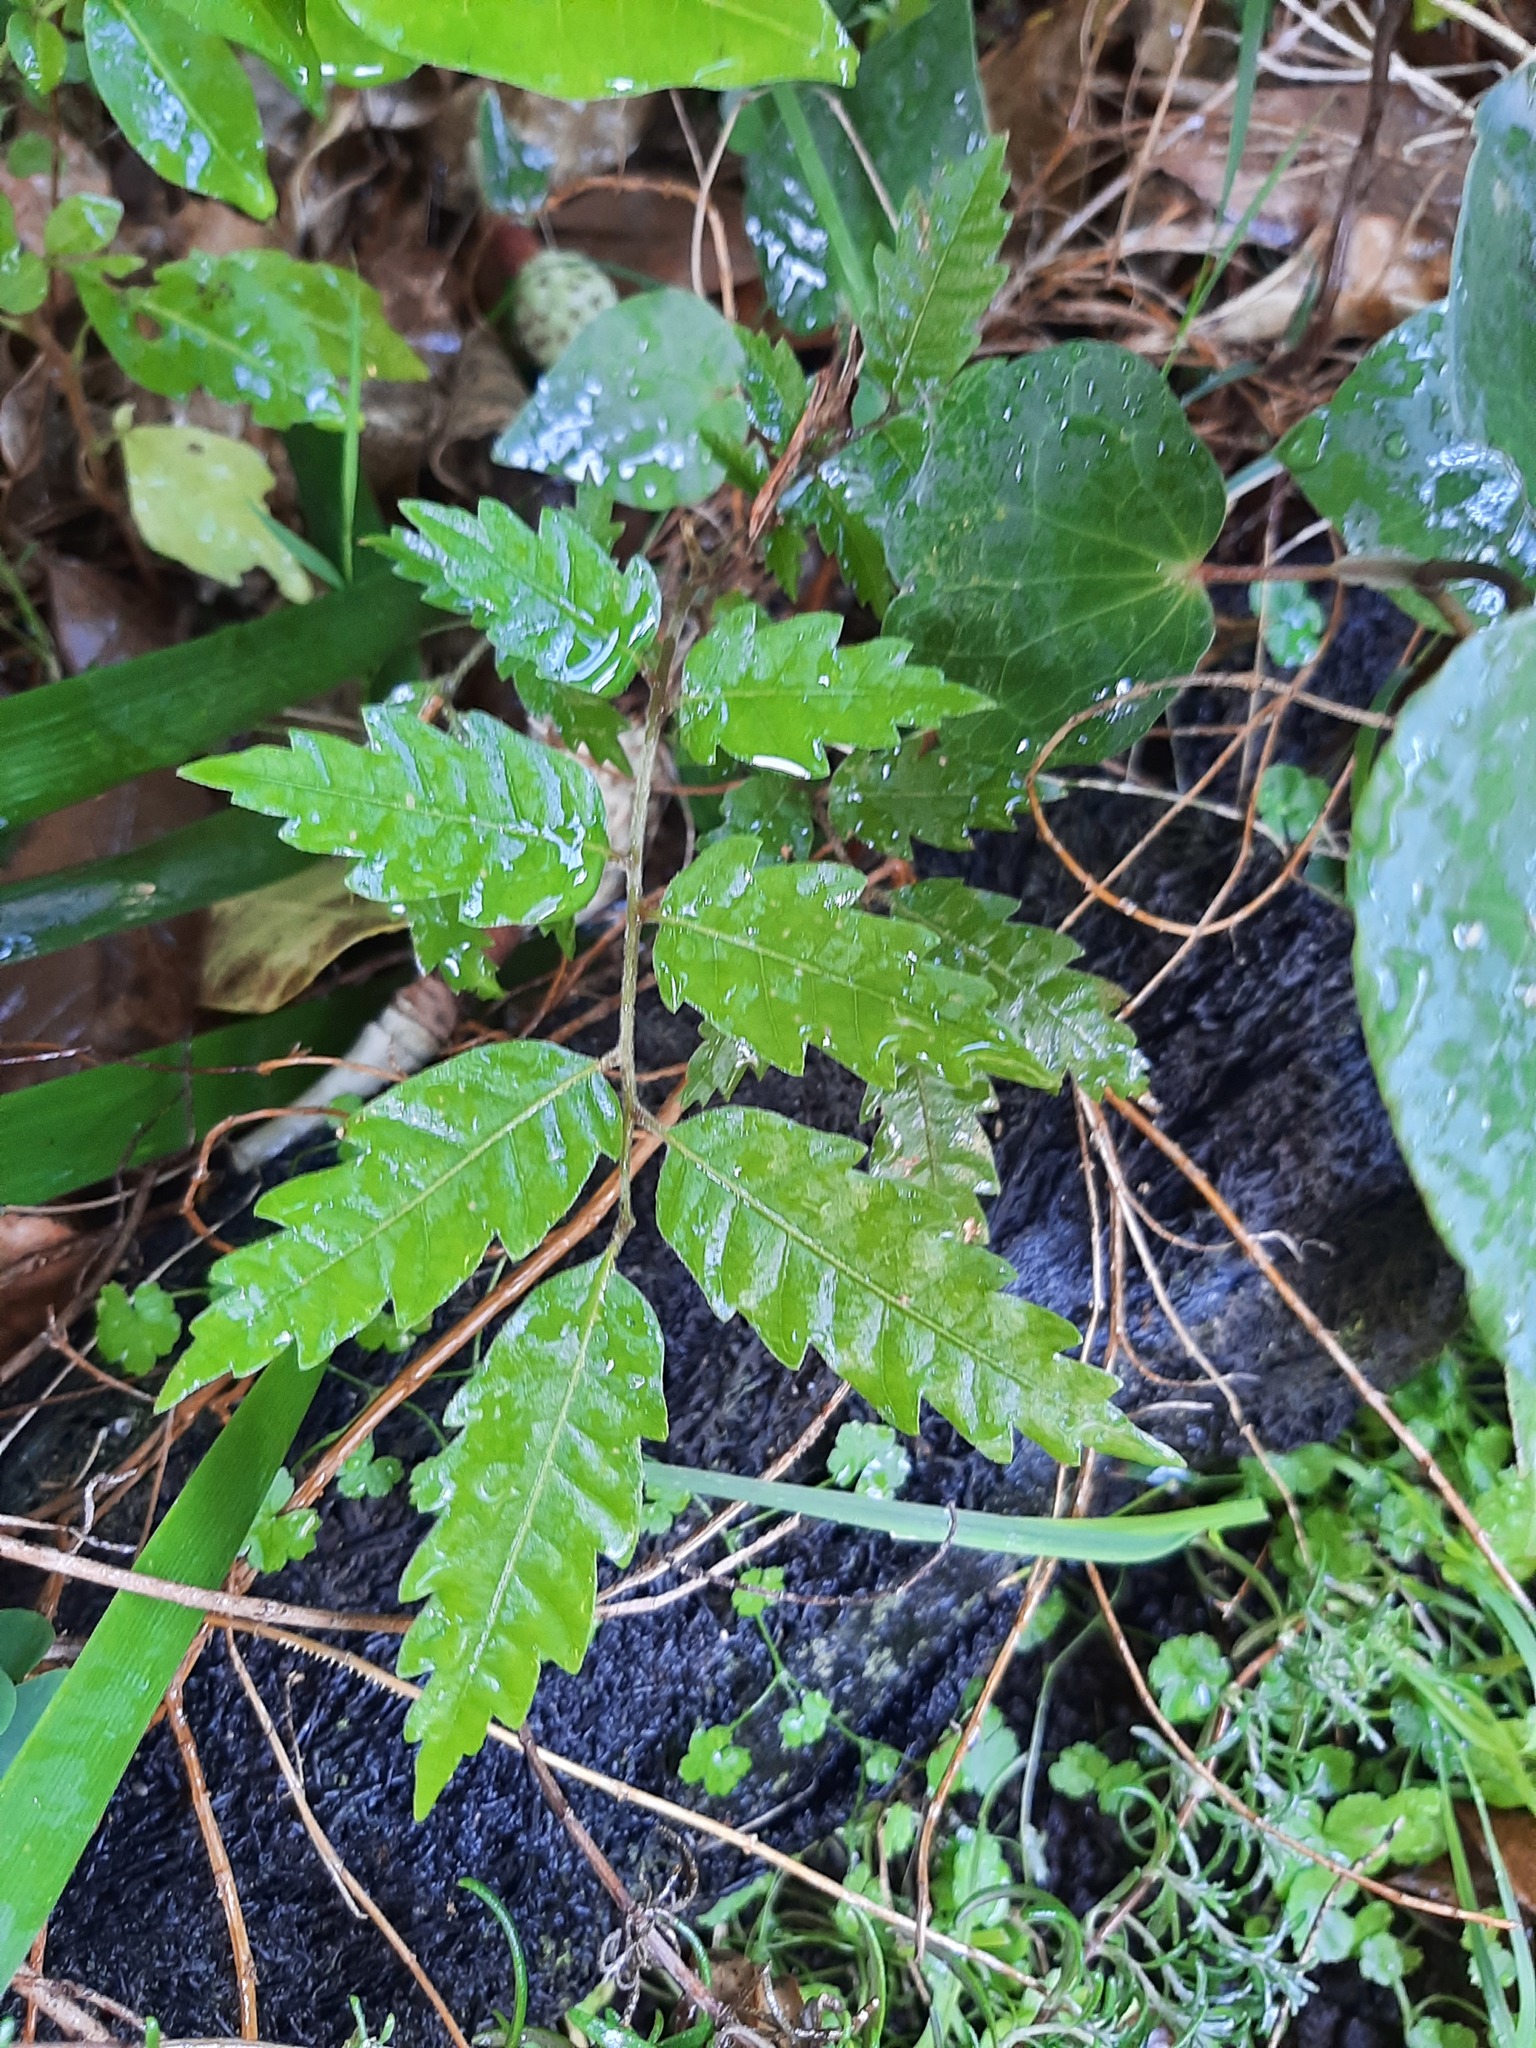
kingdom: Plantae
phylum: Tracheophyta
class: Magnoliopsida
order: Sapindales
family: Sapindaceae
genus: Alectryon
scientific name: Alectryon excelsus
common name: Three kings titoki
